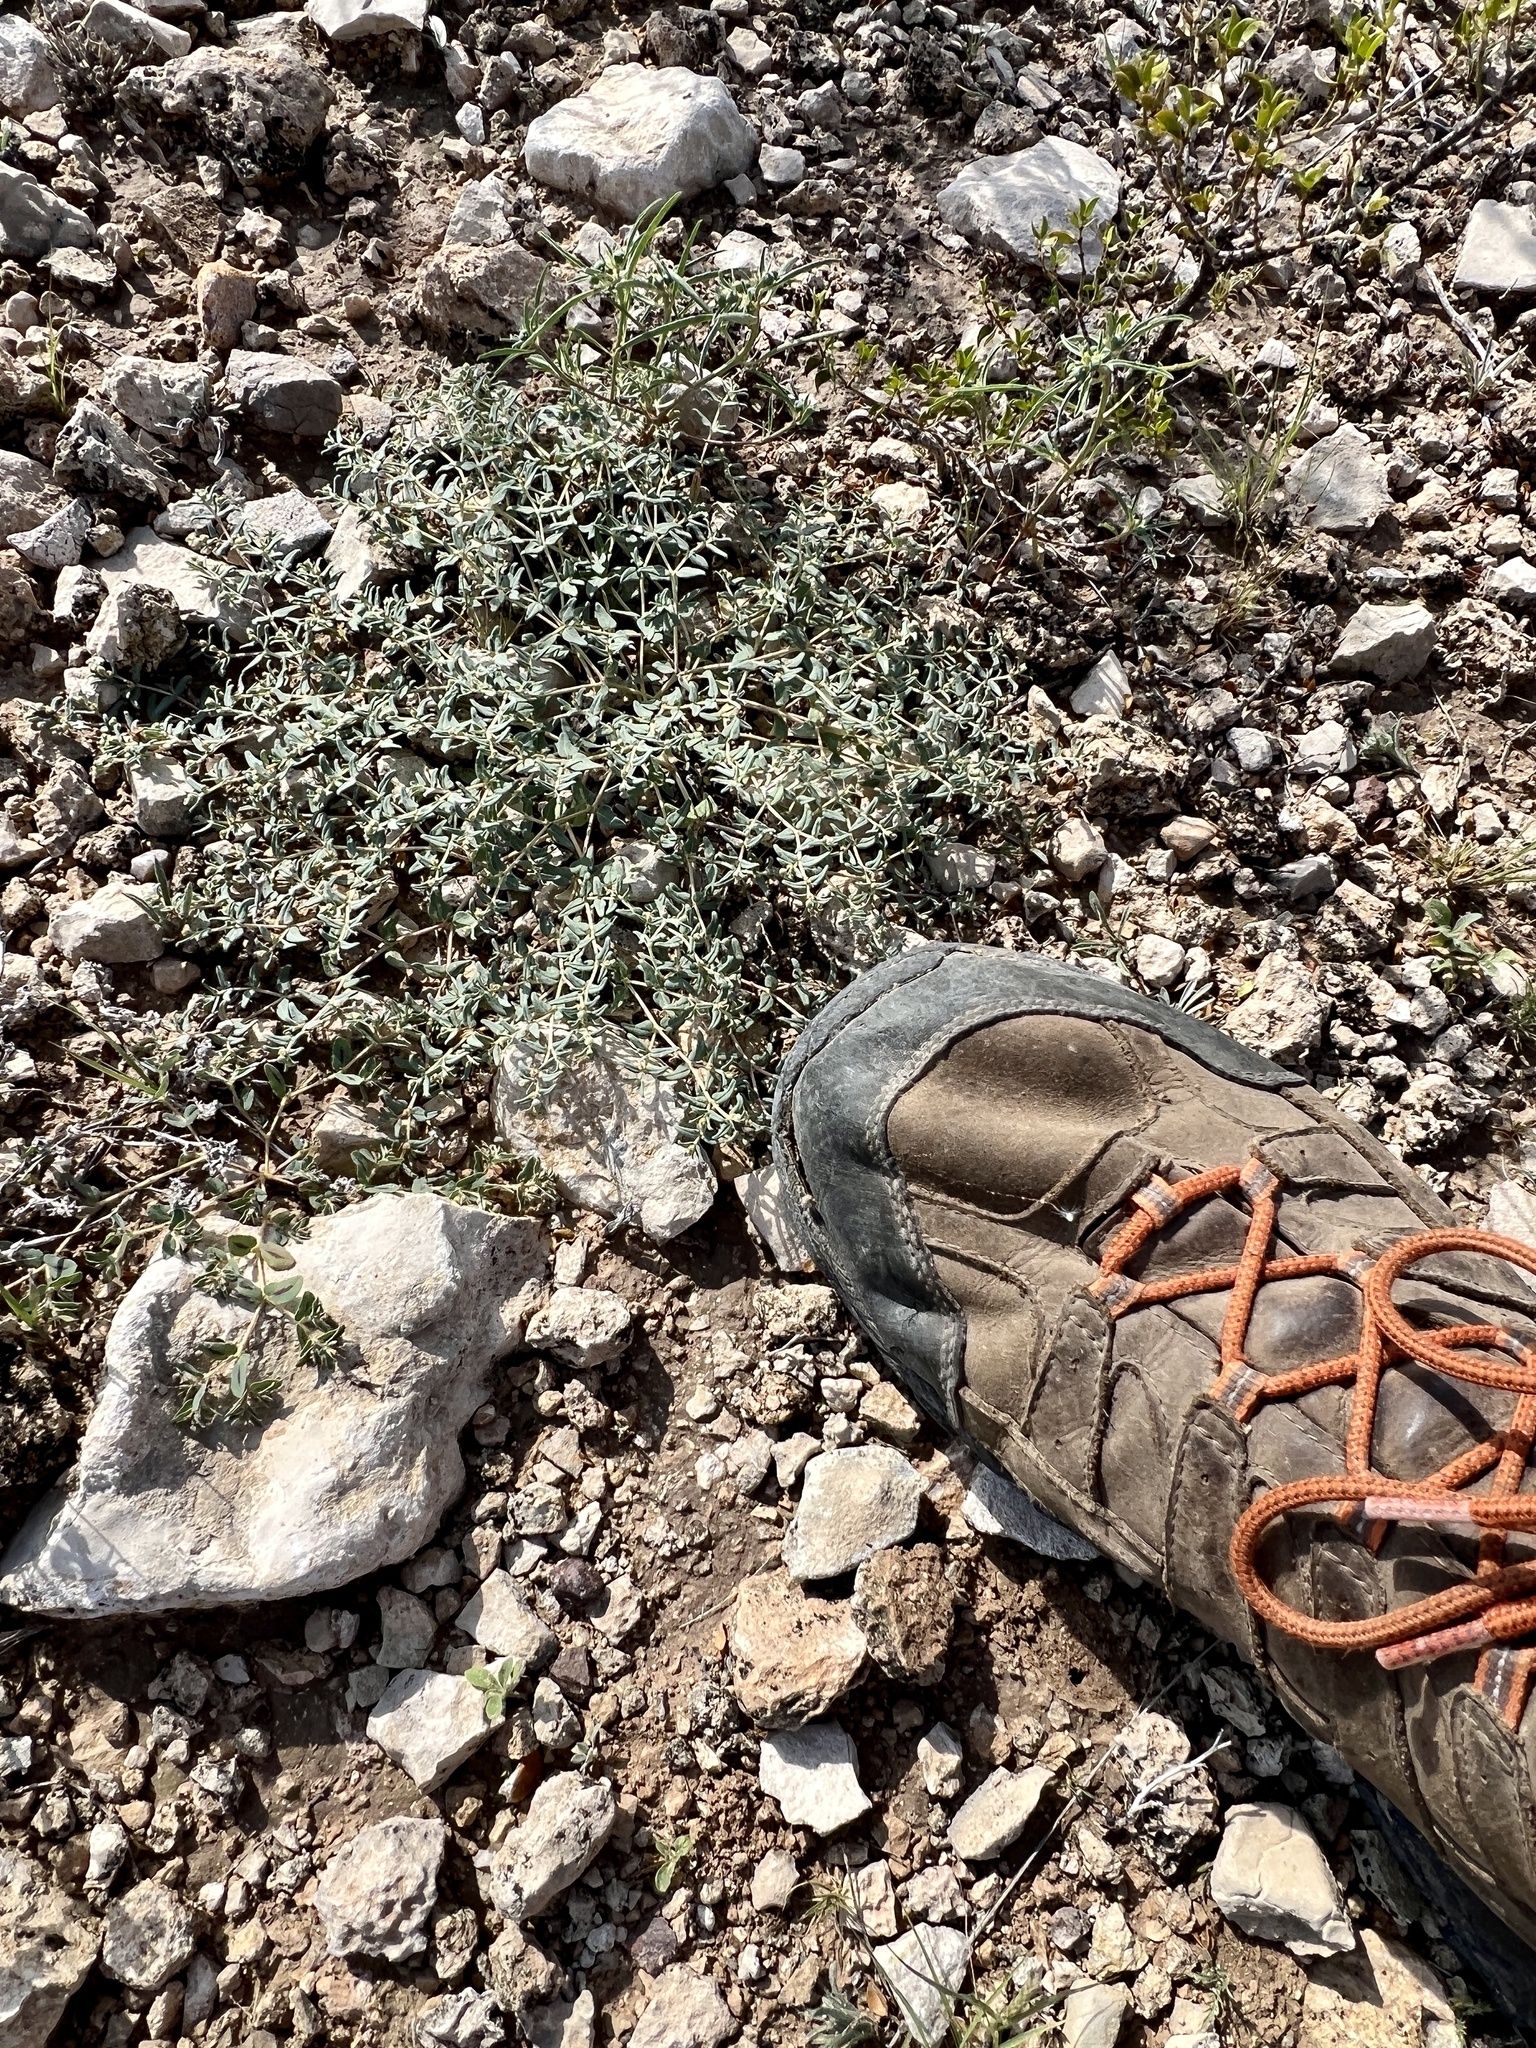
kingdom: Plantae
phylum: Tracheophyta
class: Magnoliopsida
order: Malpighiales
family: Euphorbiaceae
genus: Euphorbia
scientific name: Euphorbia lata
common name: Hoary euphorbia
